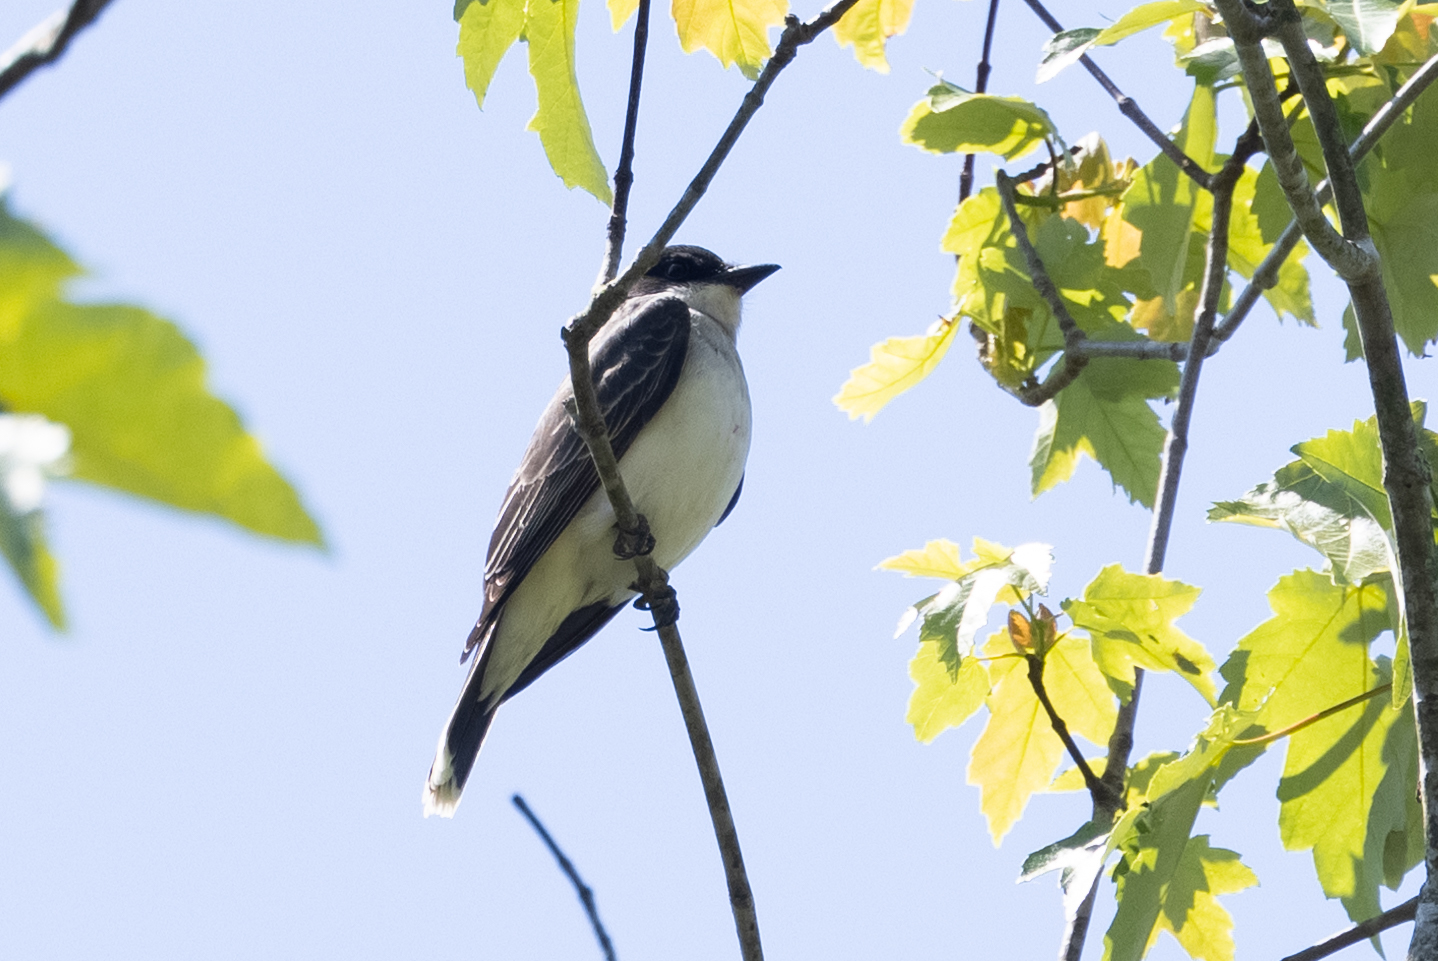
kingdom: Animalia
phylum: Chordata
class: Aves
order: Passeriformes
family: Tyrannidae
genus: Tyrannus
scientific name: Tyrannus tyrannus
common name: Eastern kingbird
